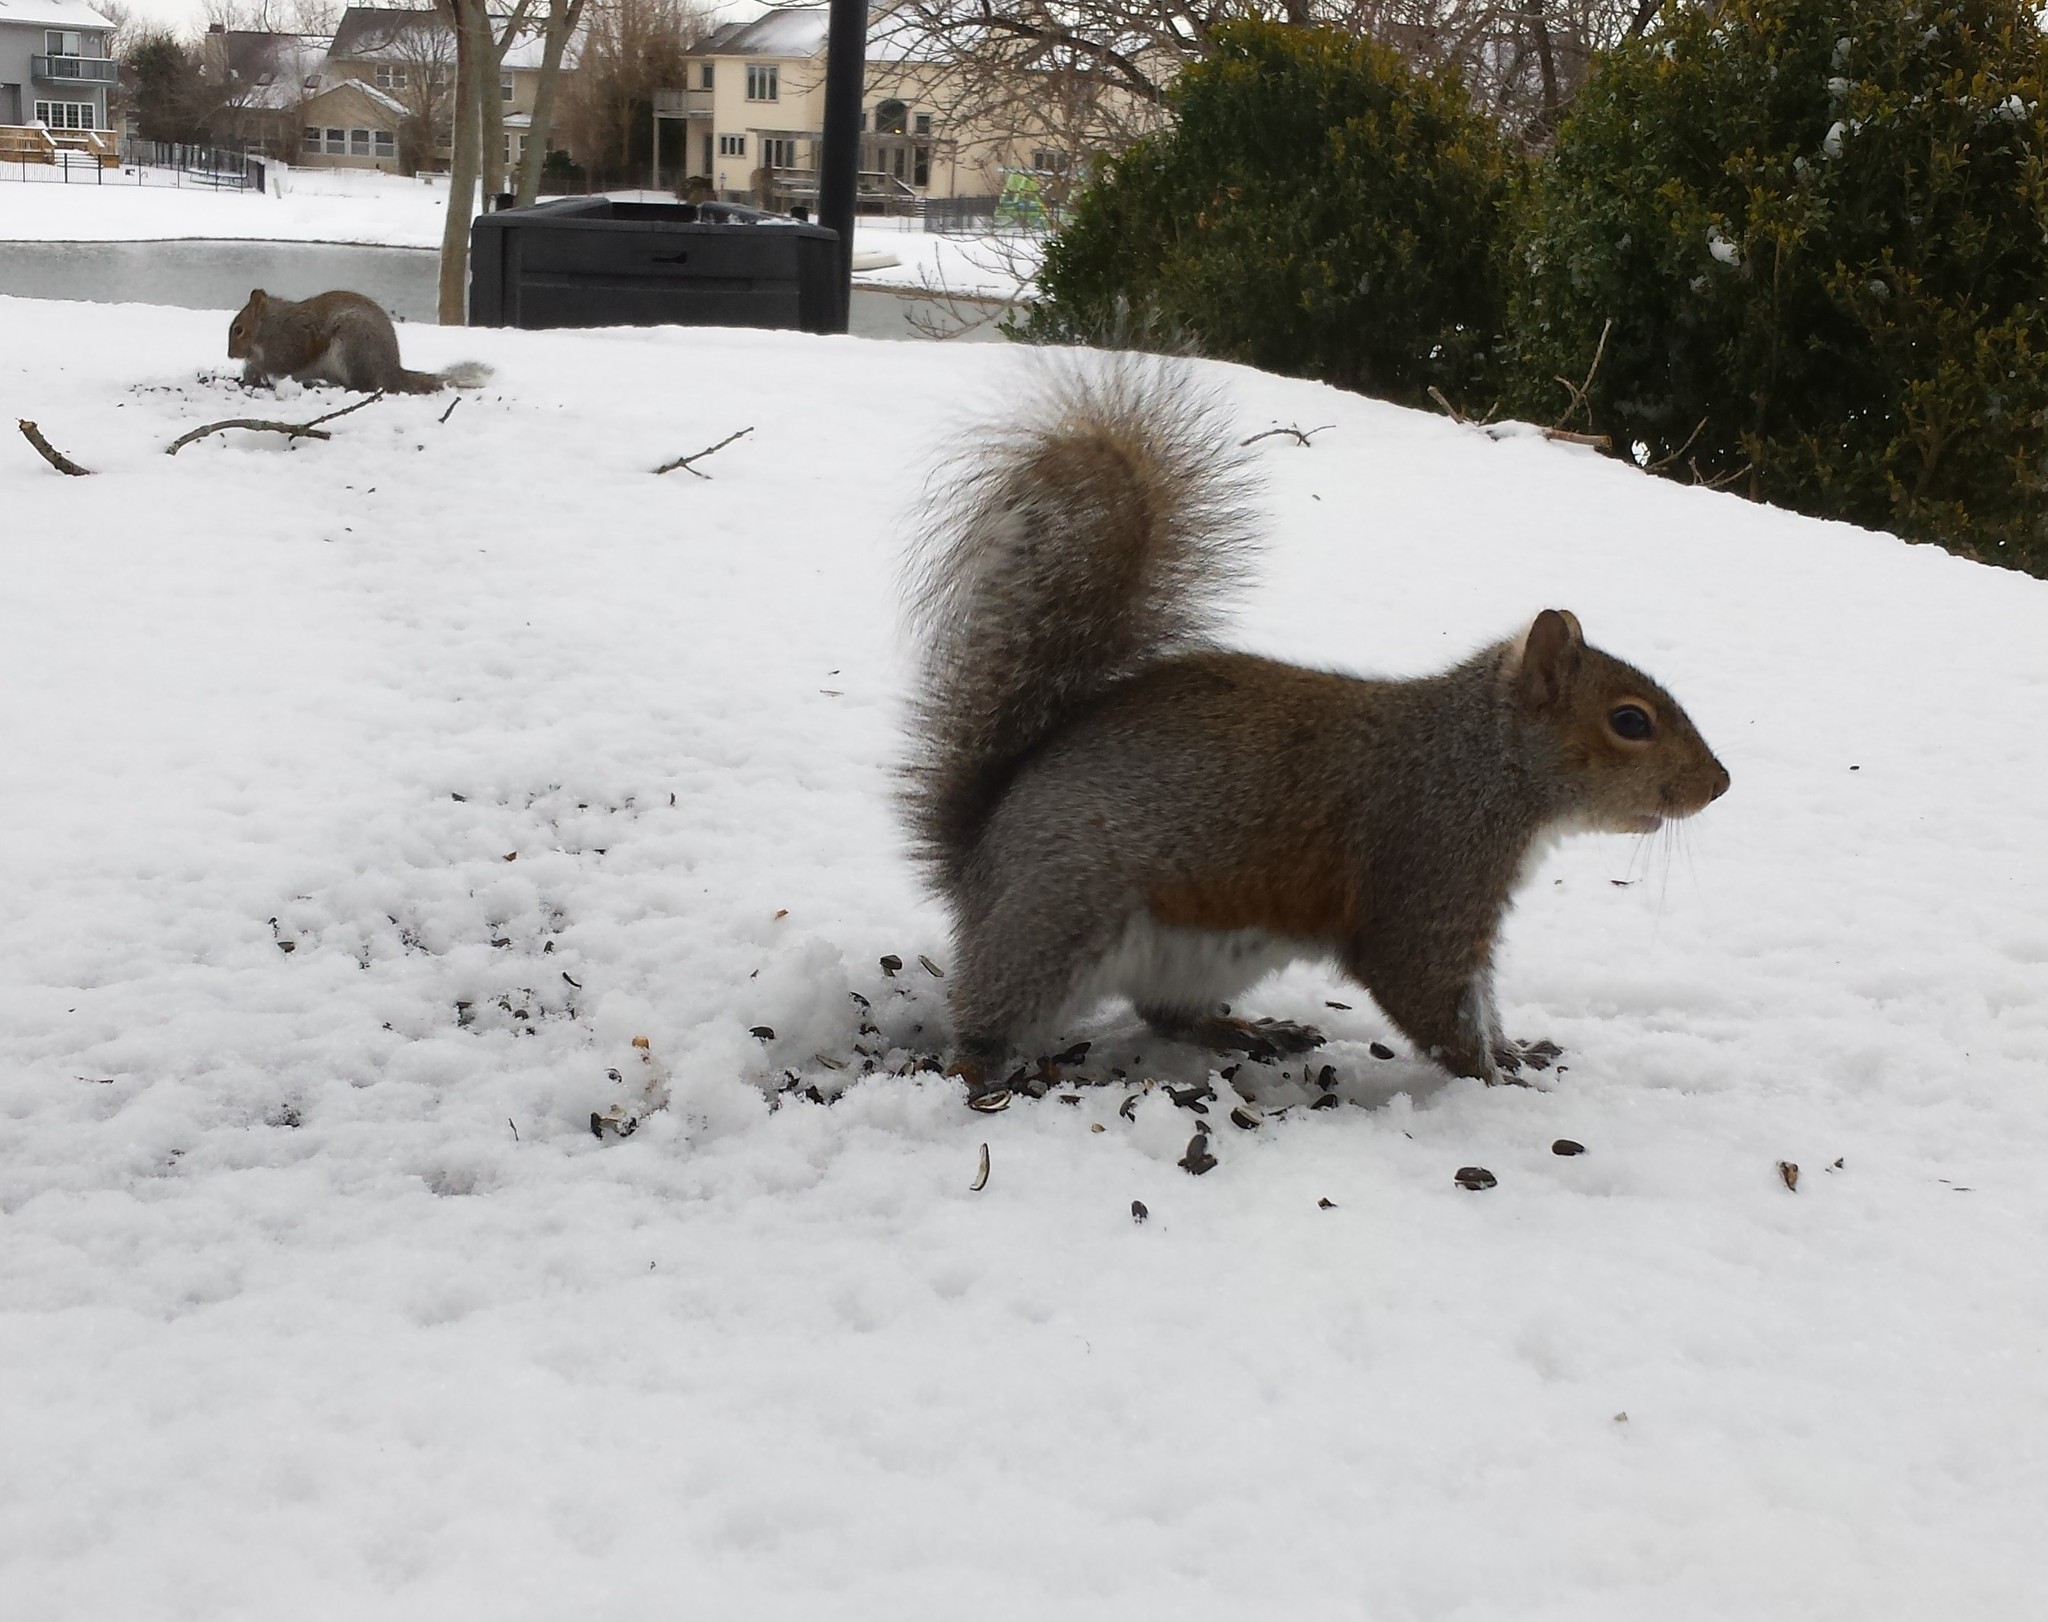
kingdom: Animalia
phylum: Chordata
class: Mammalia
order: Rodentia
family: Sciuridae
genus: Sciurus
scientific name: Sciurus carolinensis
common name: Eastern gray squirrel
